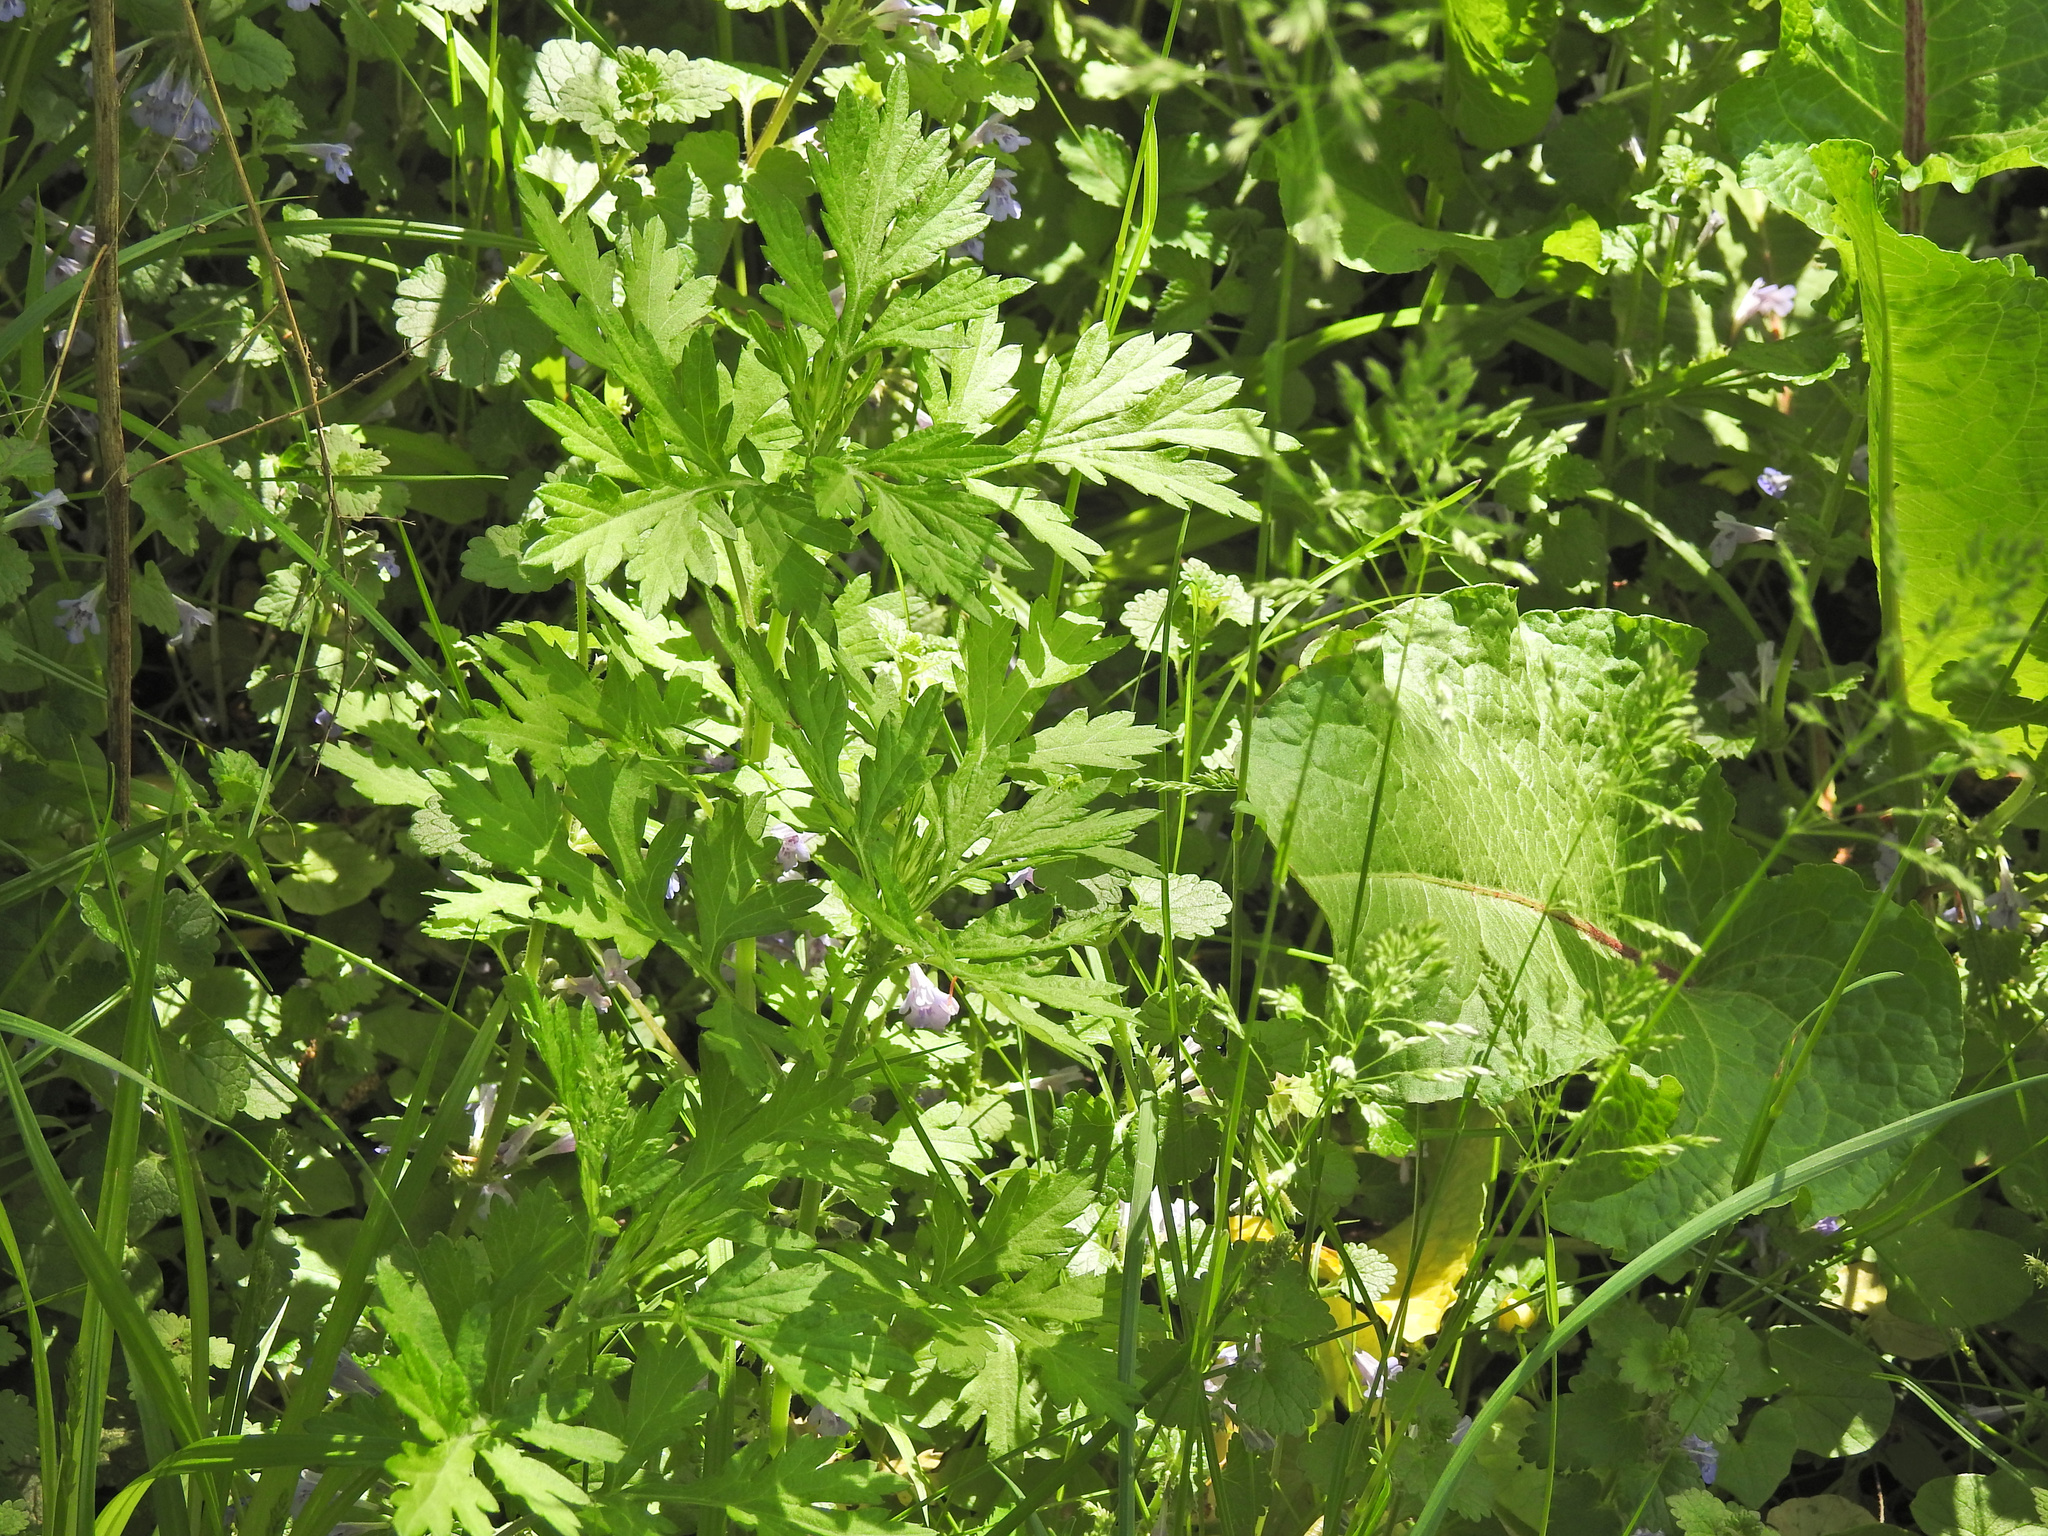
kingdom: Plantae
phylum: Tracheophyta
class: Magnoliopsida
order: Asterales
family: Asteraceae
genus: Artemisia
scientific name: Artemisia vulgaris
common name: Mugwort
